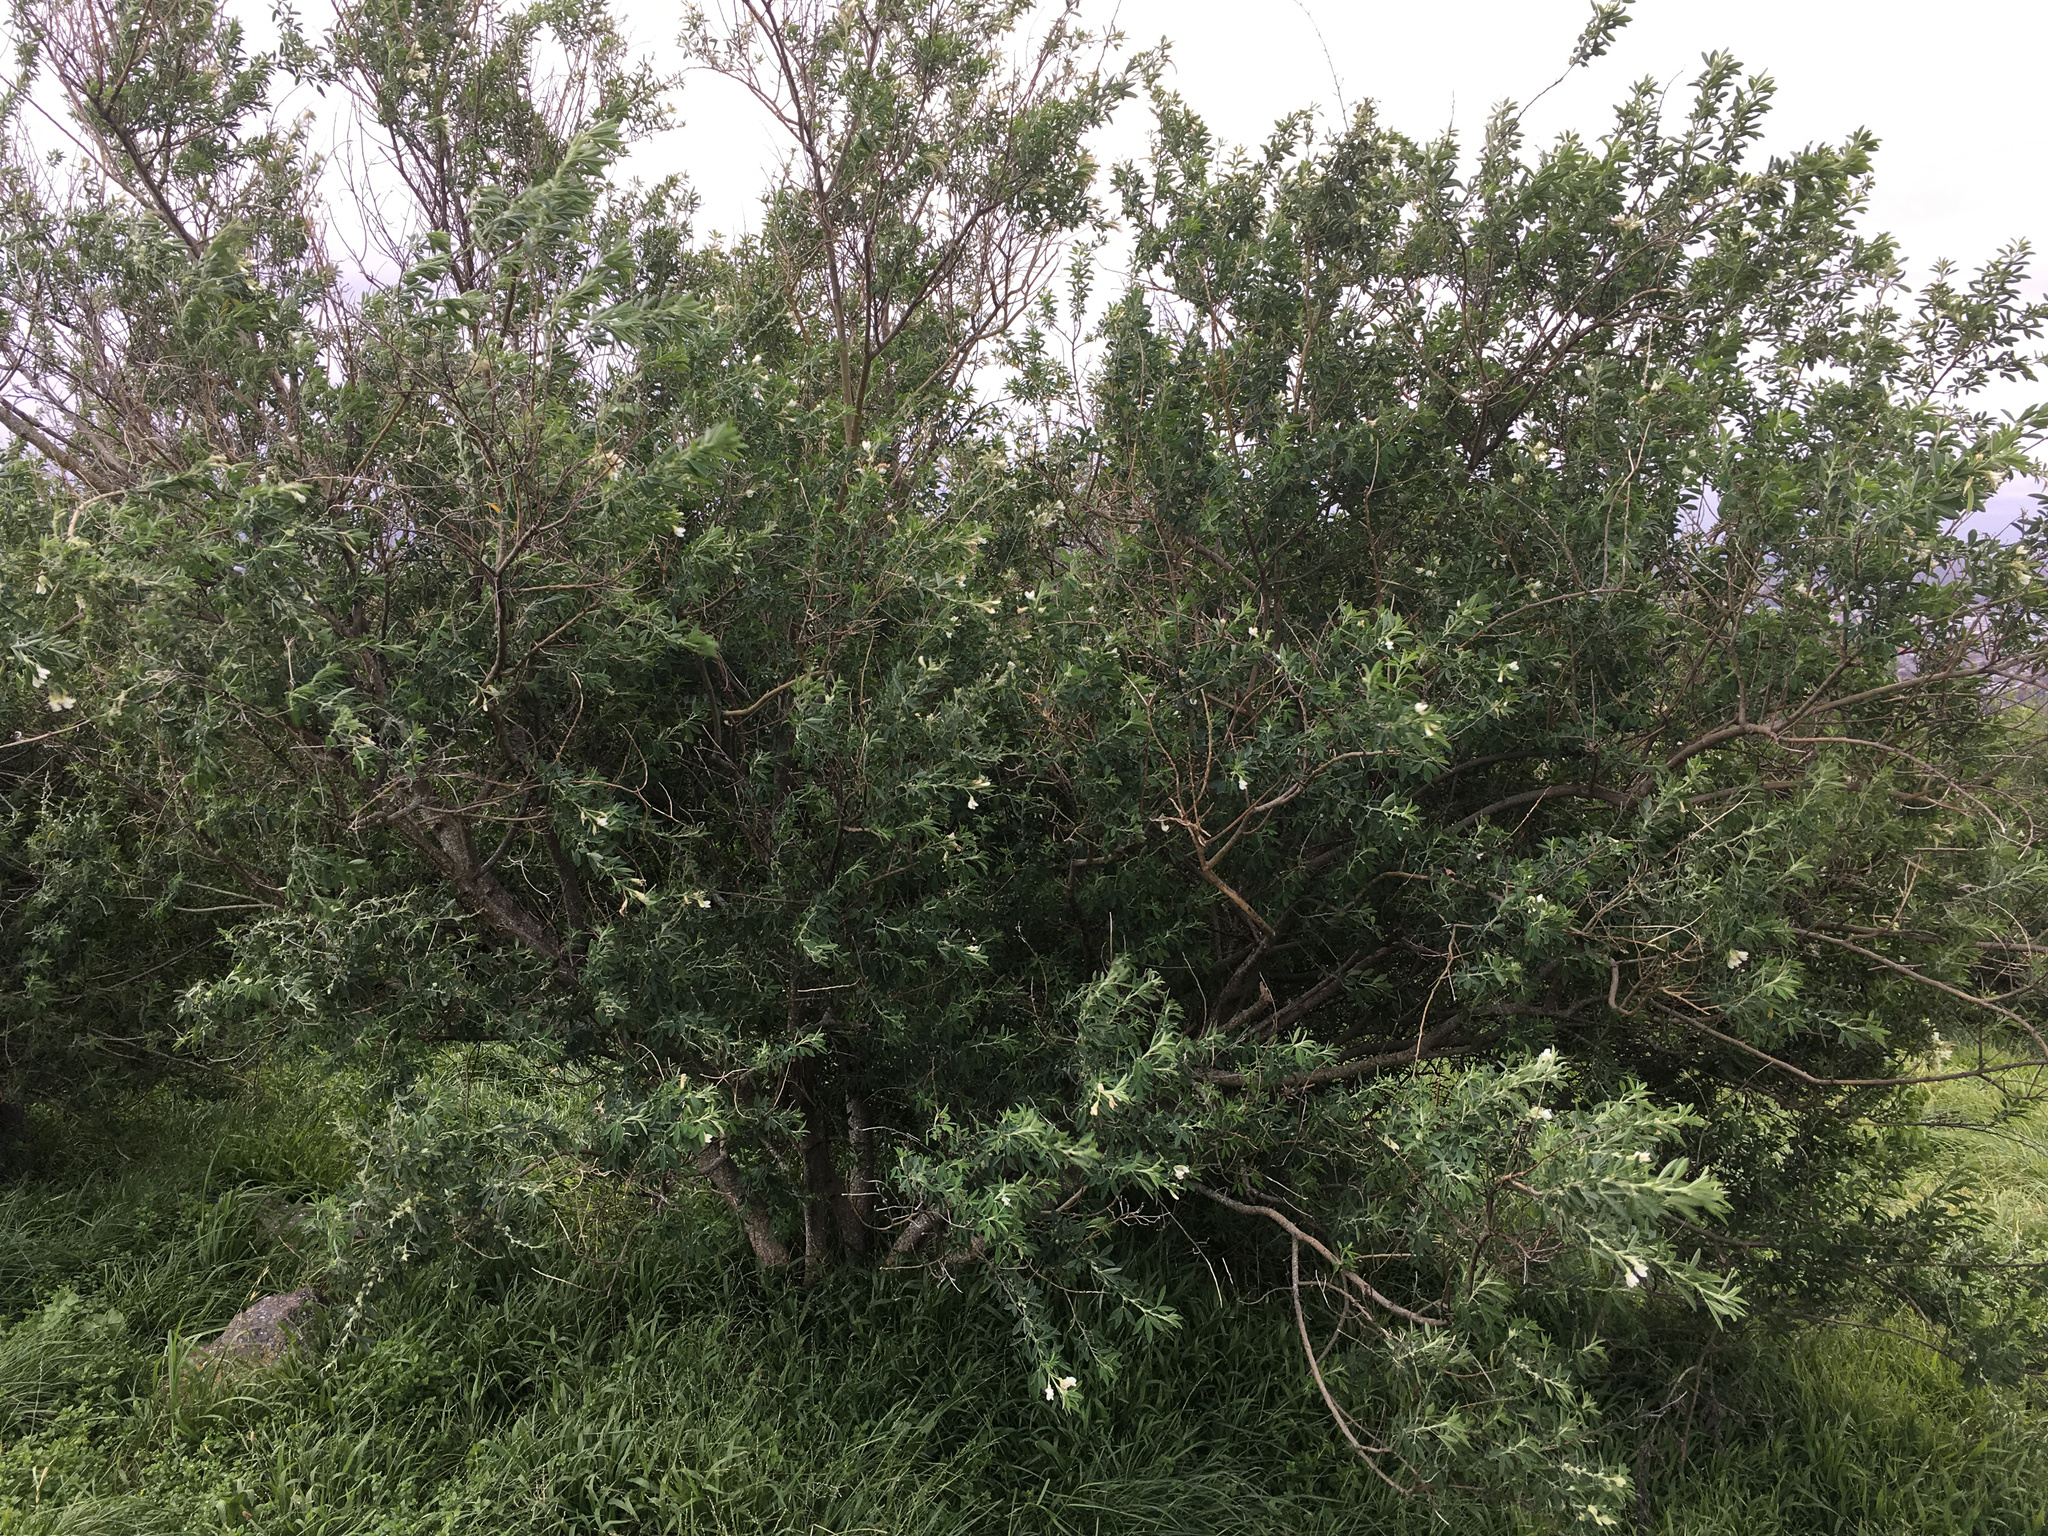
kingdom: Plantae
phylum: Tracheophyta
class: Magnoliopsida
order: Fabales
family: Fabaceae
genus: Chamaecytisus
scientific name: Chamaecytisus prolifer
